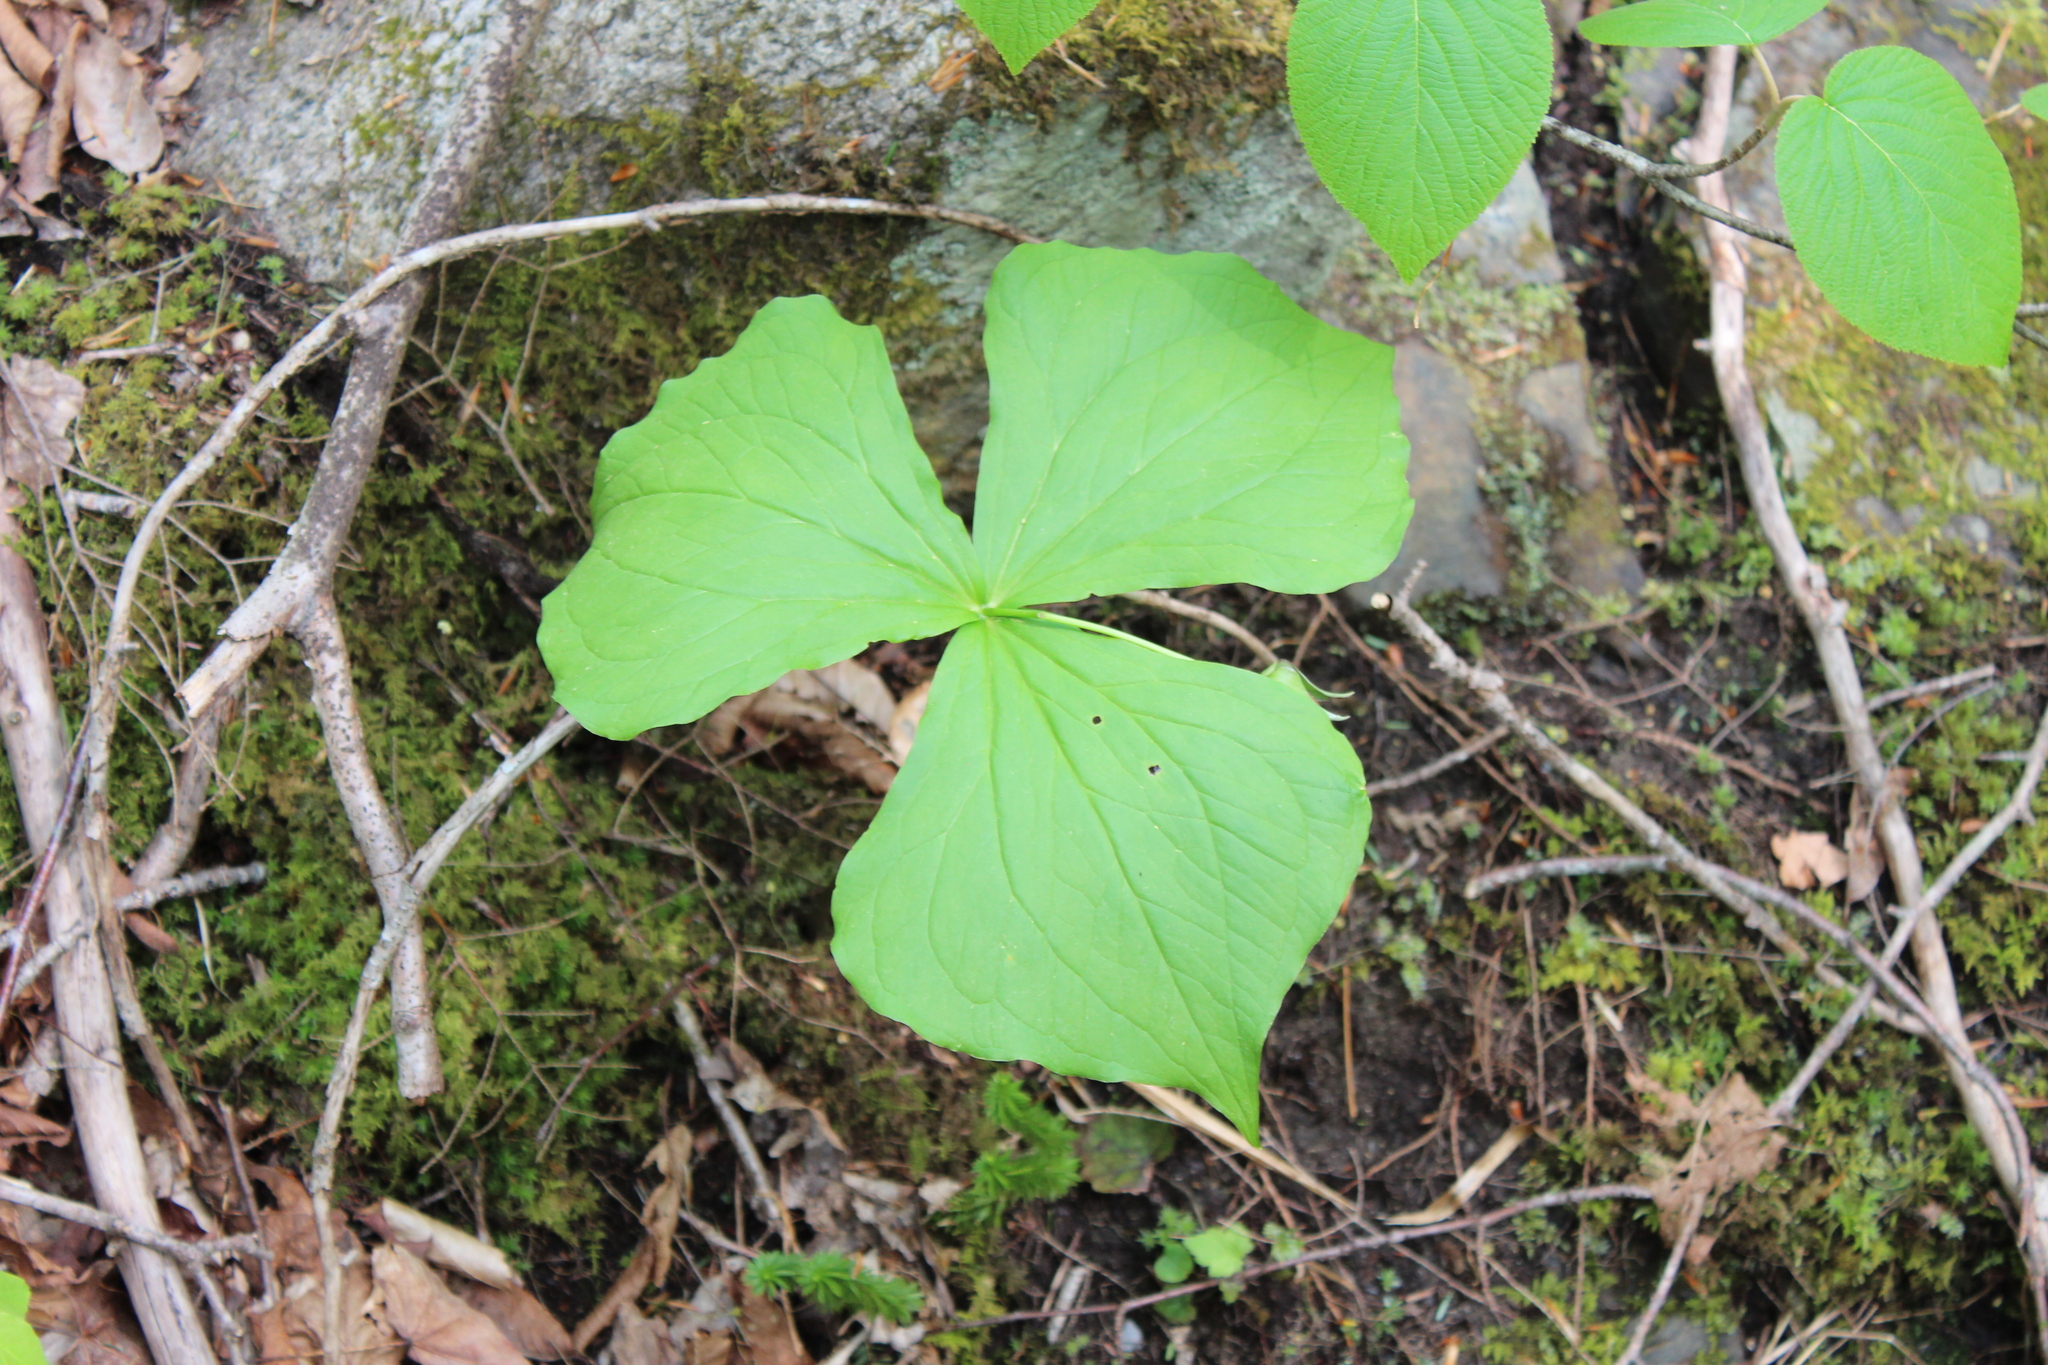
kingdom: Plantae
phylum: Tracheophyta
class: Liliopsida
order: Liliales
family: Melanthiaceae
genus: Trillium
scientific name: Trillium erectum
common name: Purple trillium
